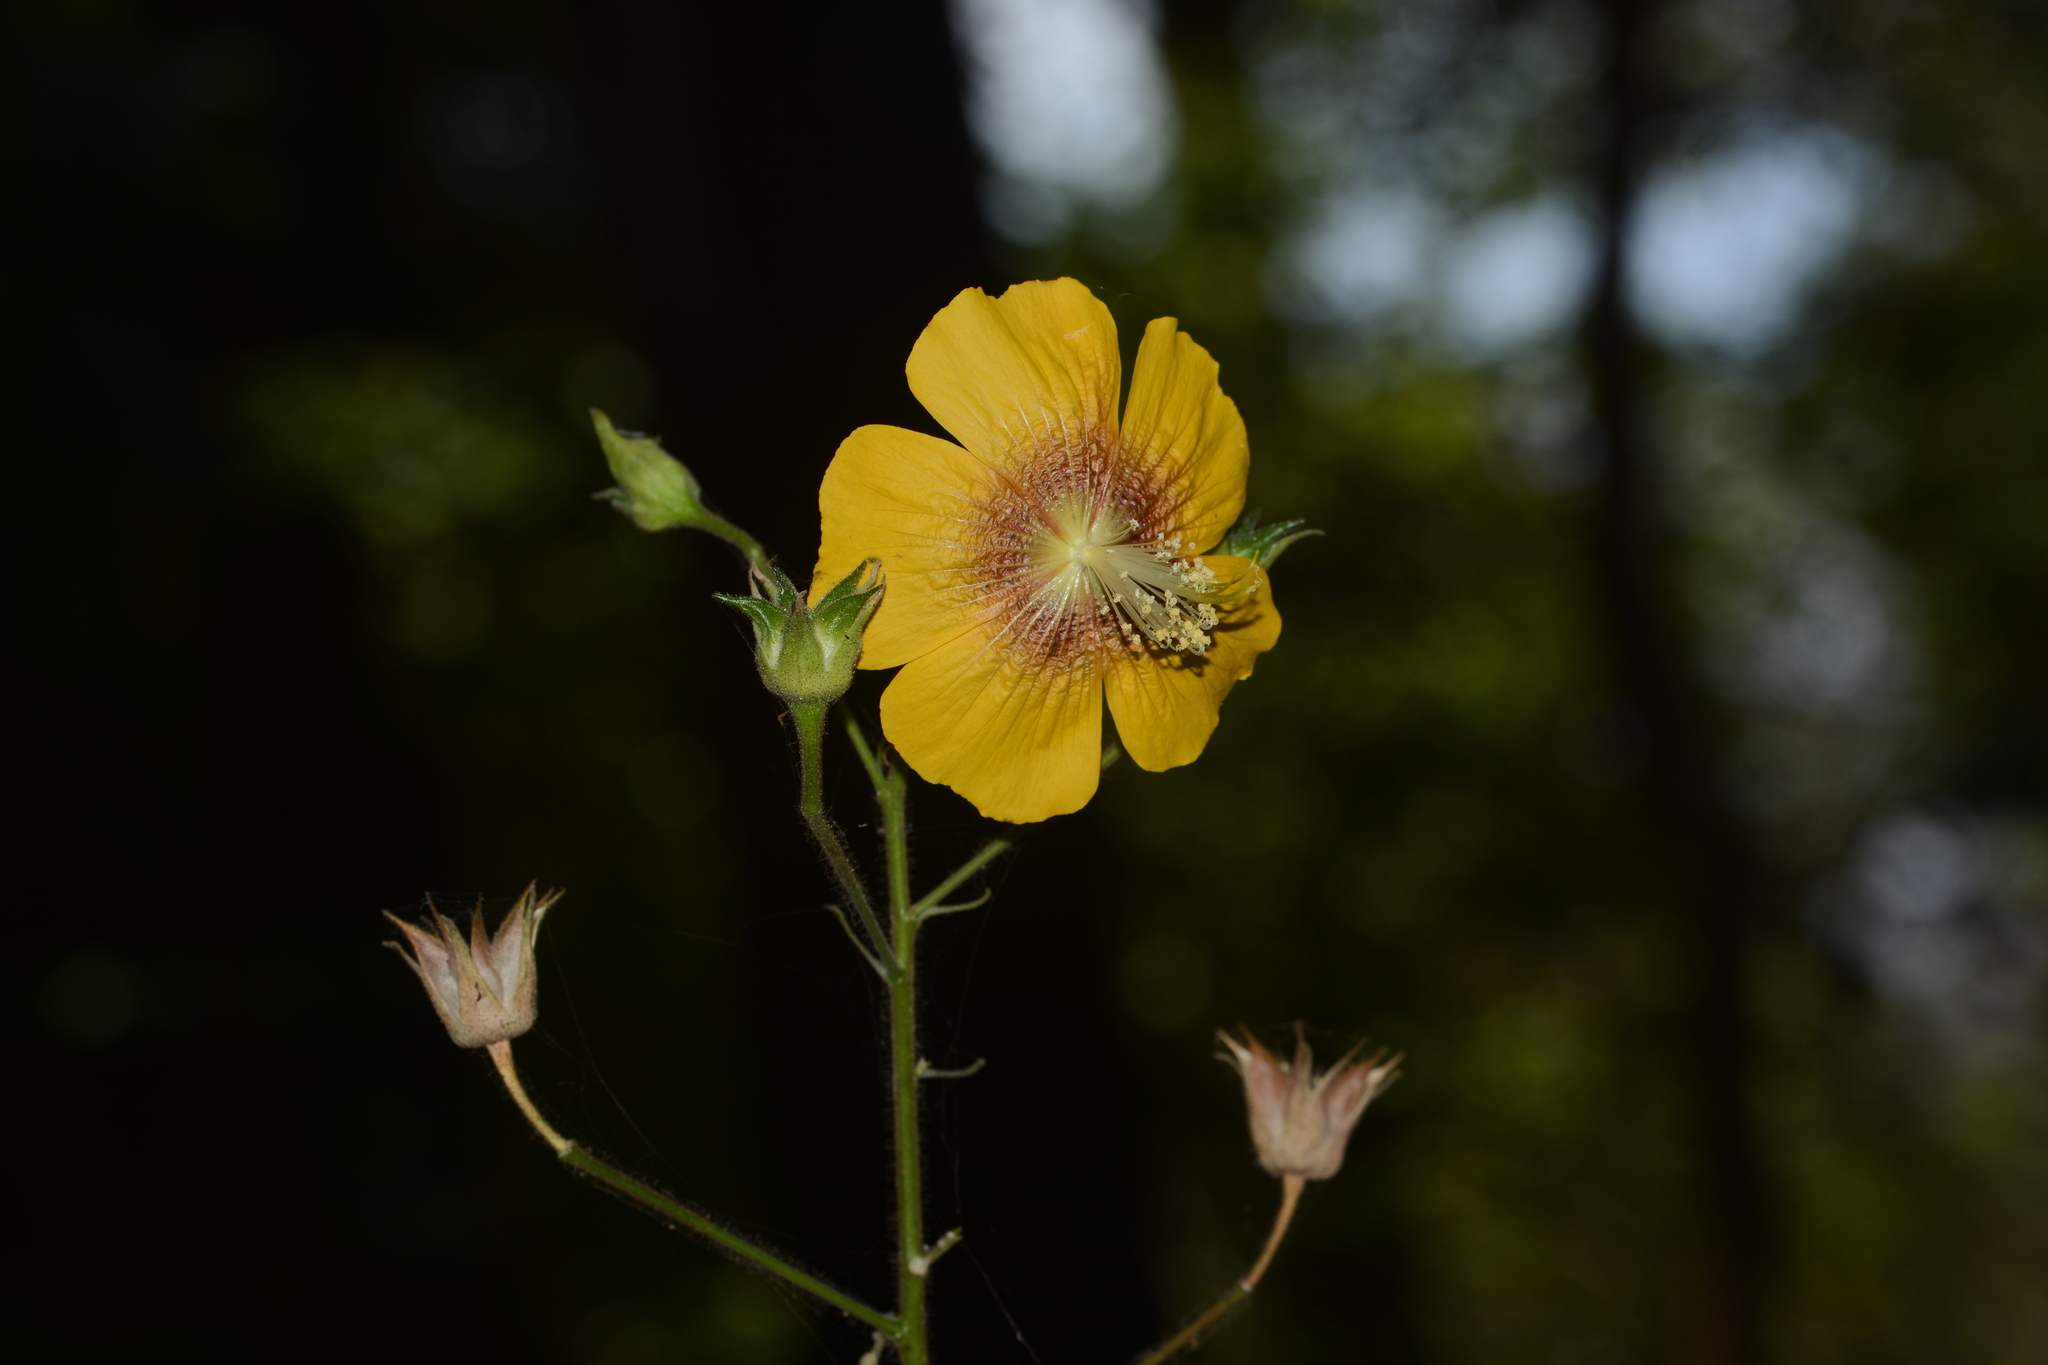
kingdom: Plantae
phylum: Tracheophyta
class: Magnoliopsida
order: Malvales
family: Malvaceae
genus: Abutilon
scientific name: Abutilon persicum
